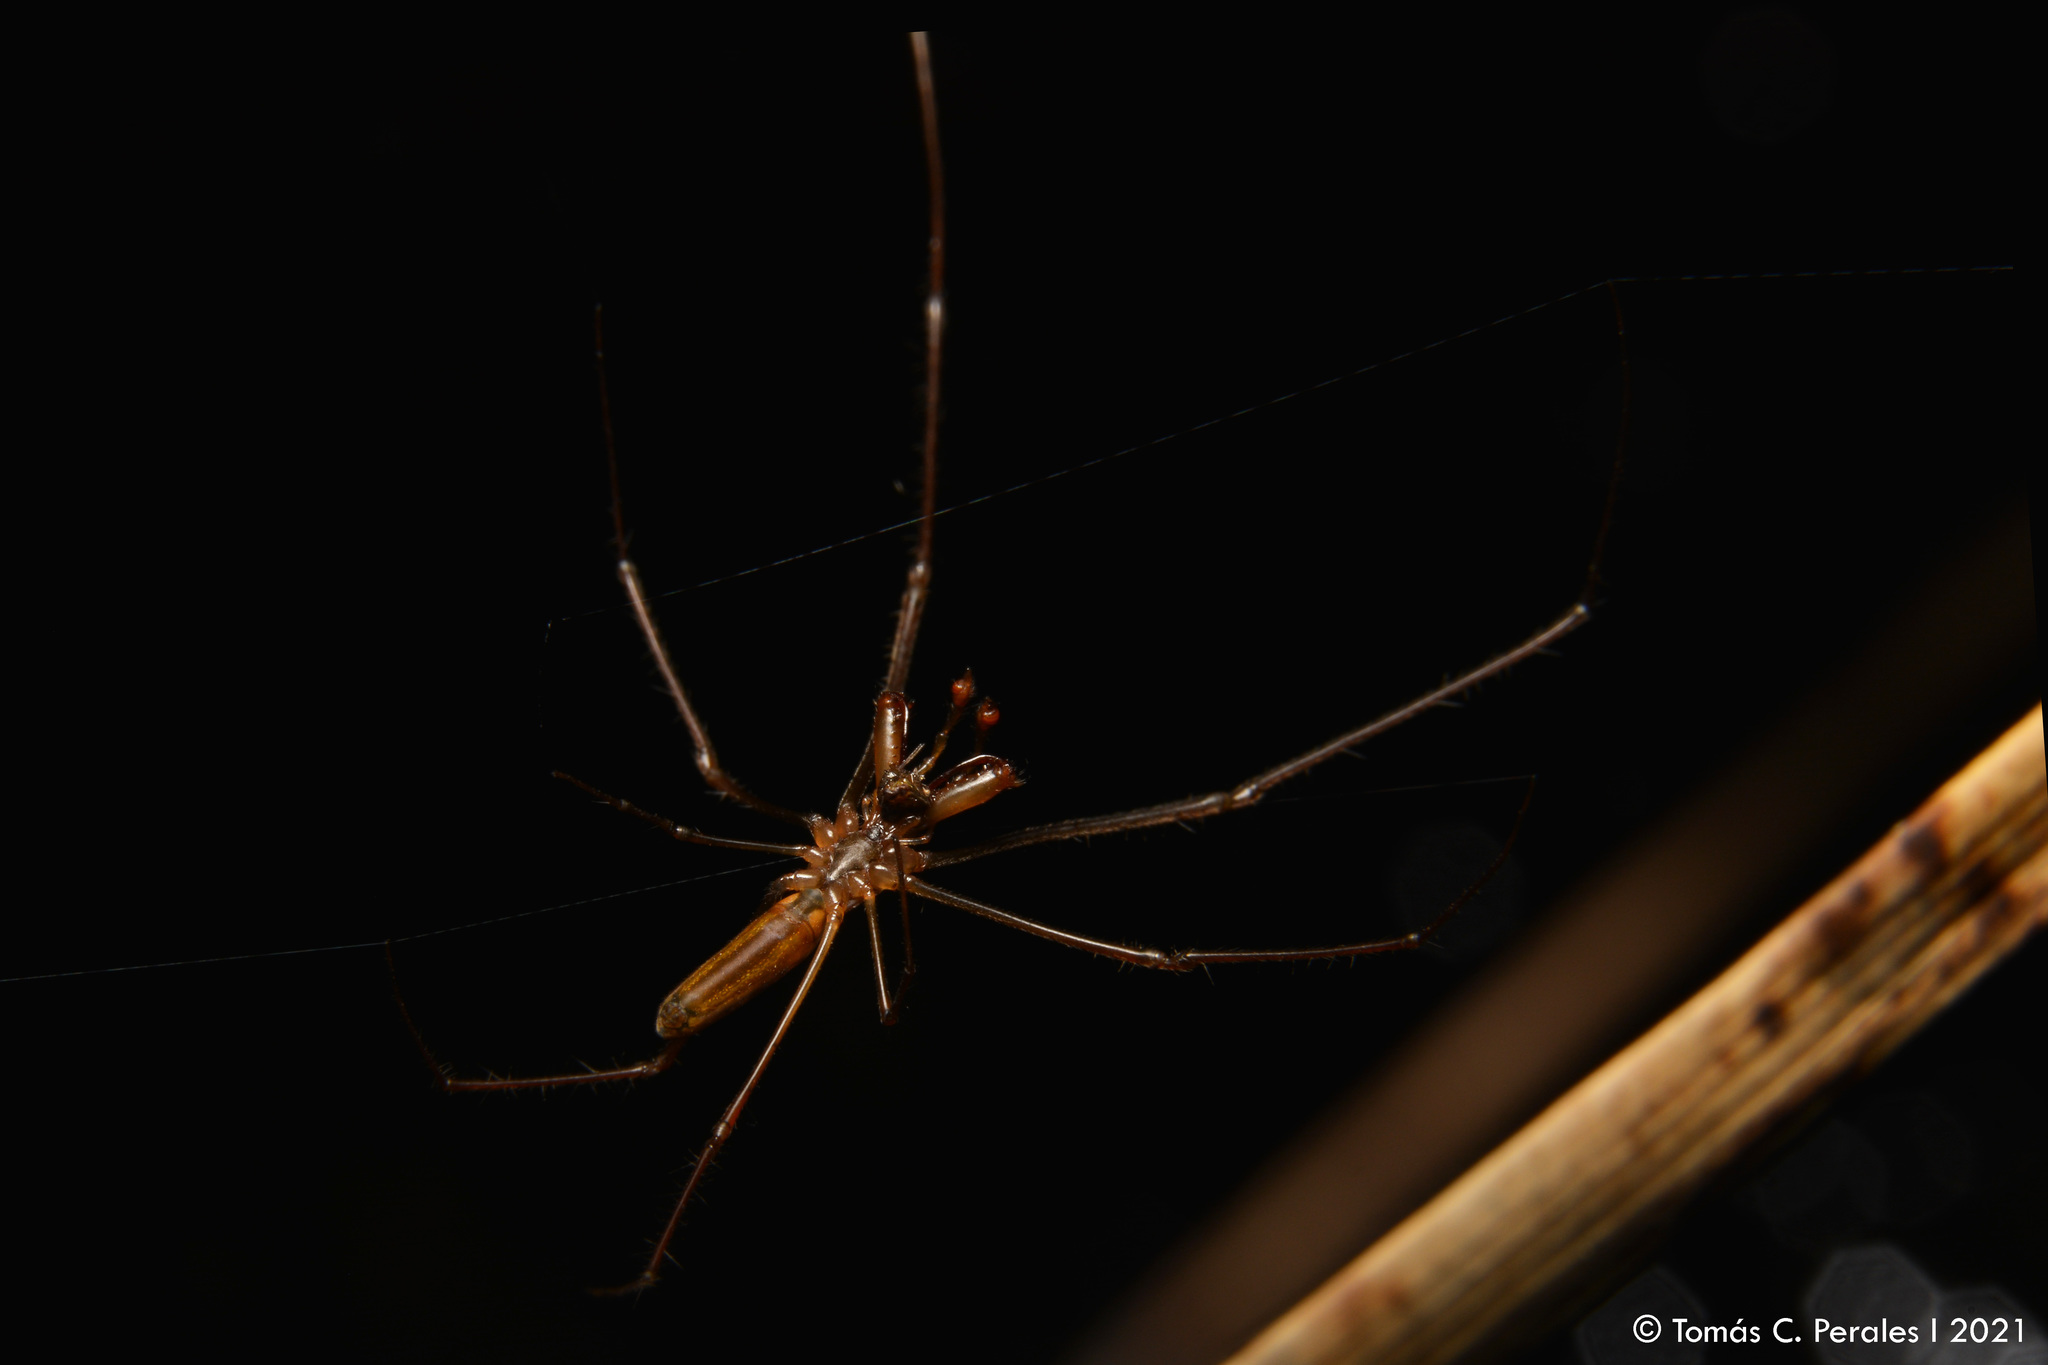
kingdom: Animalia
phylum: Arthropoda
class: Arachnida
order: Araneae
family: Tetragnathidae
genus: Tetragnatha
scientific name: Tetragnatha
